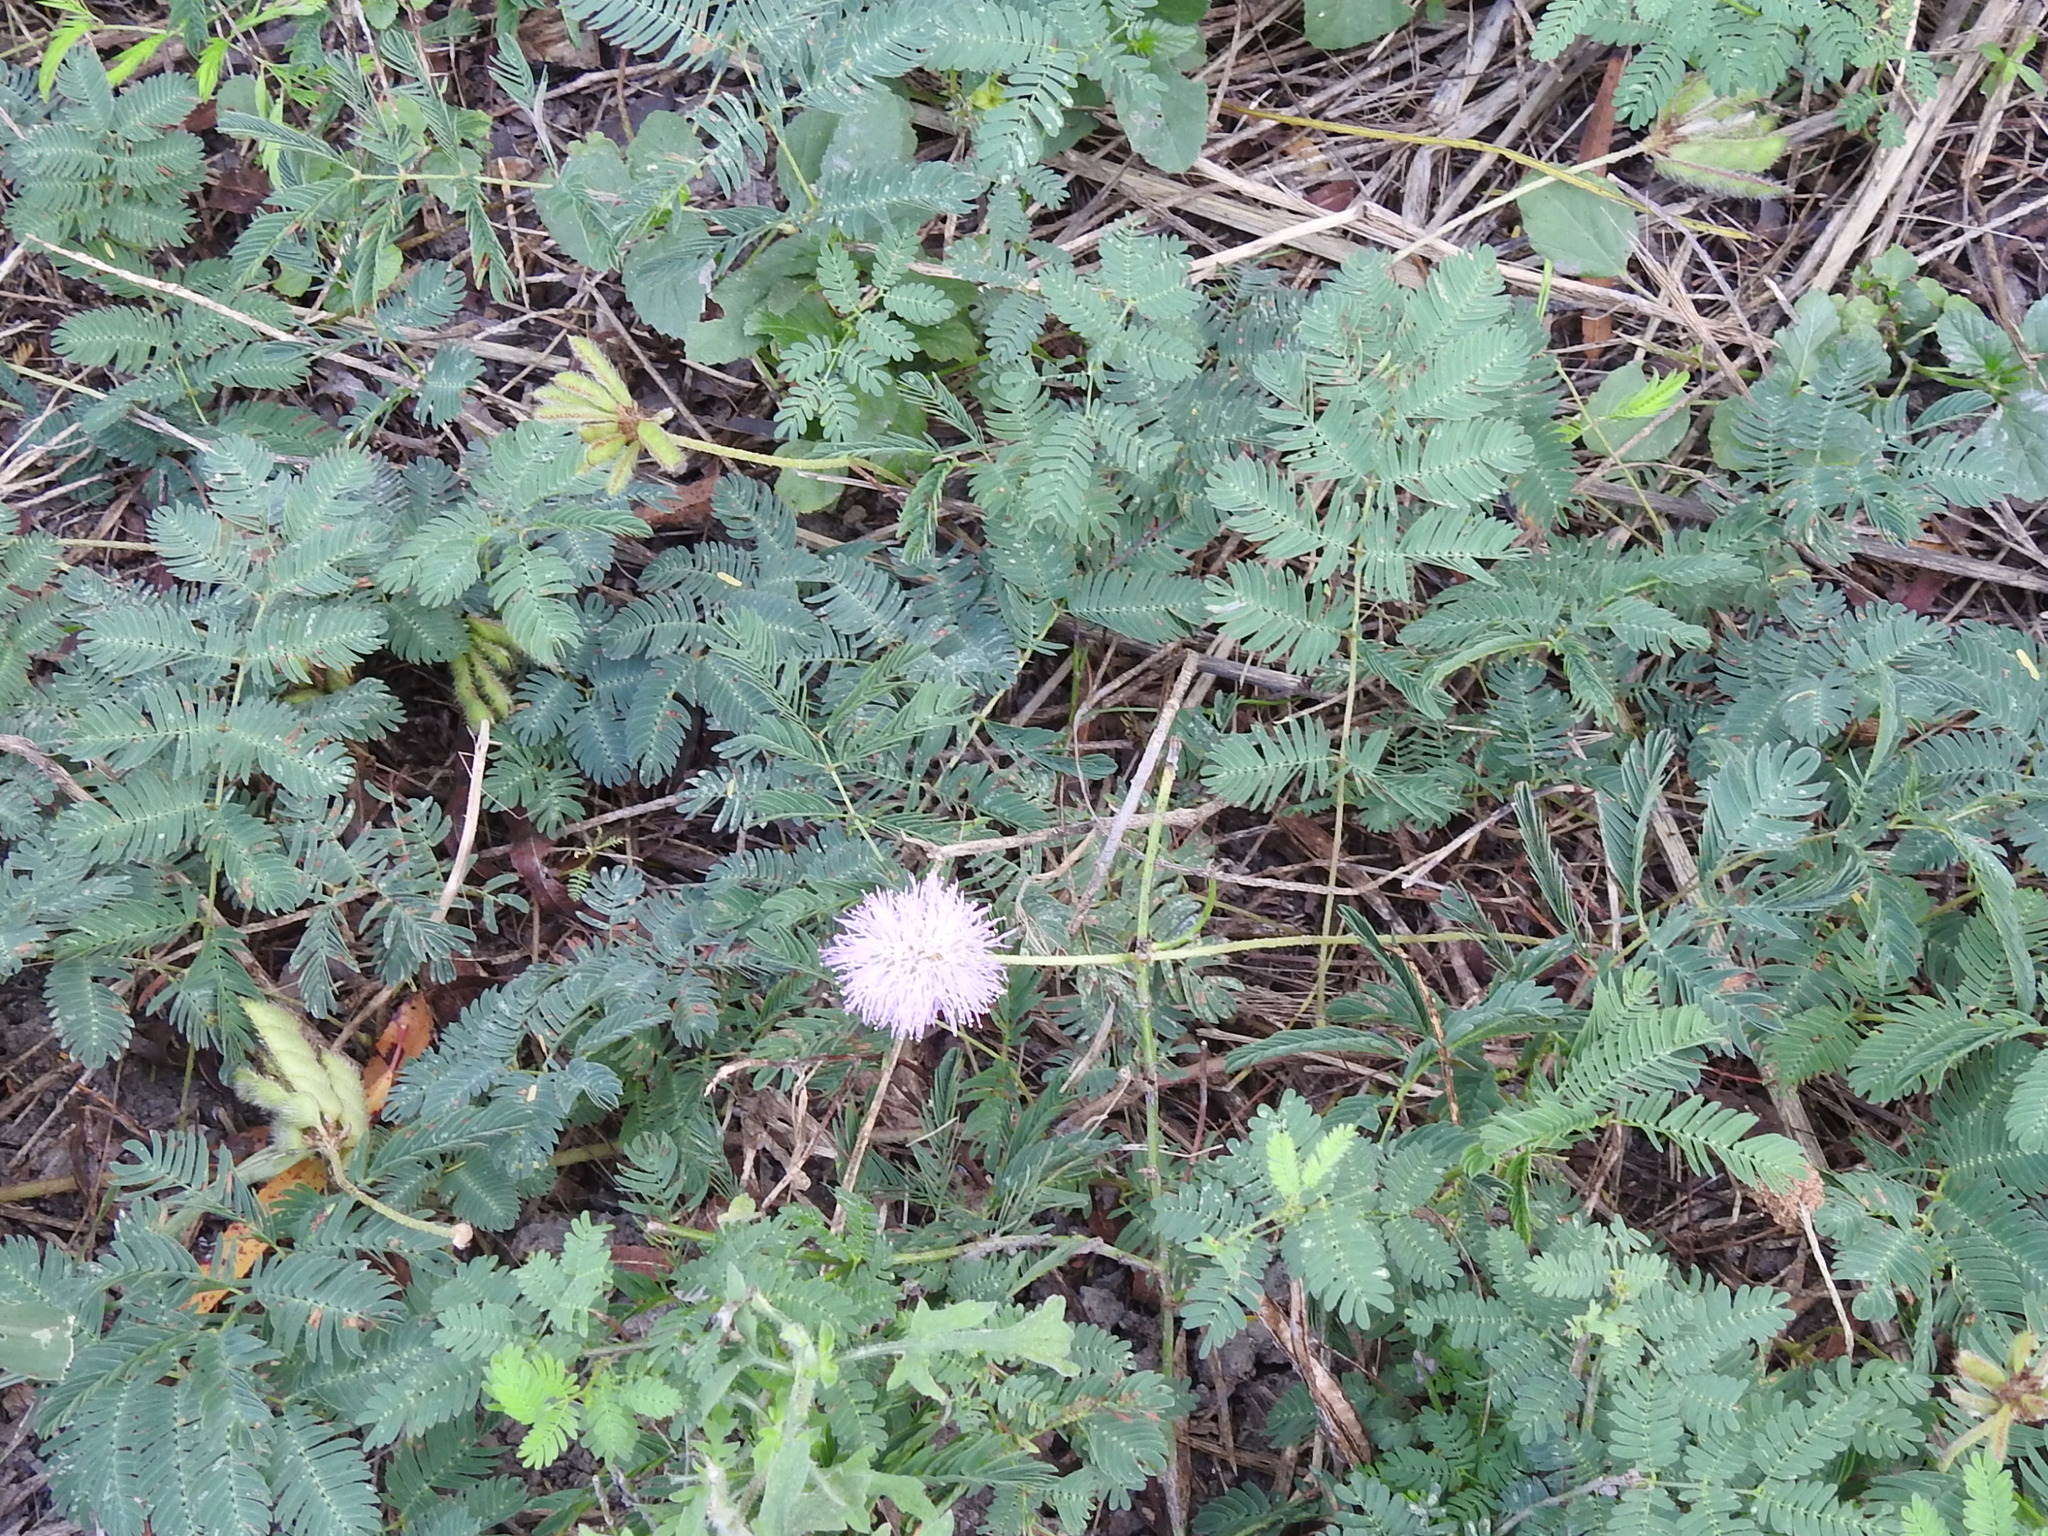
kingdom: Plantae
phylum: Tracheophyta
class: Magnoliopsida
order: Fabales
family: Fabaceae
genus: Mimosa
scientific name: Mimosa strigillosa
